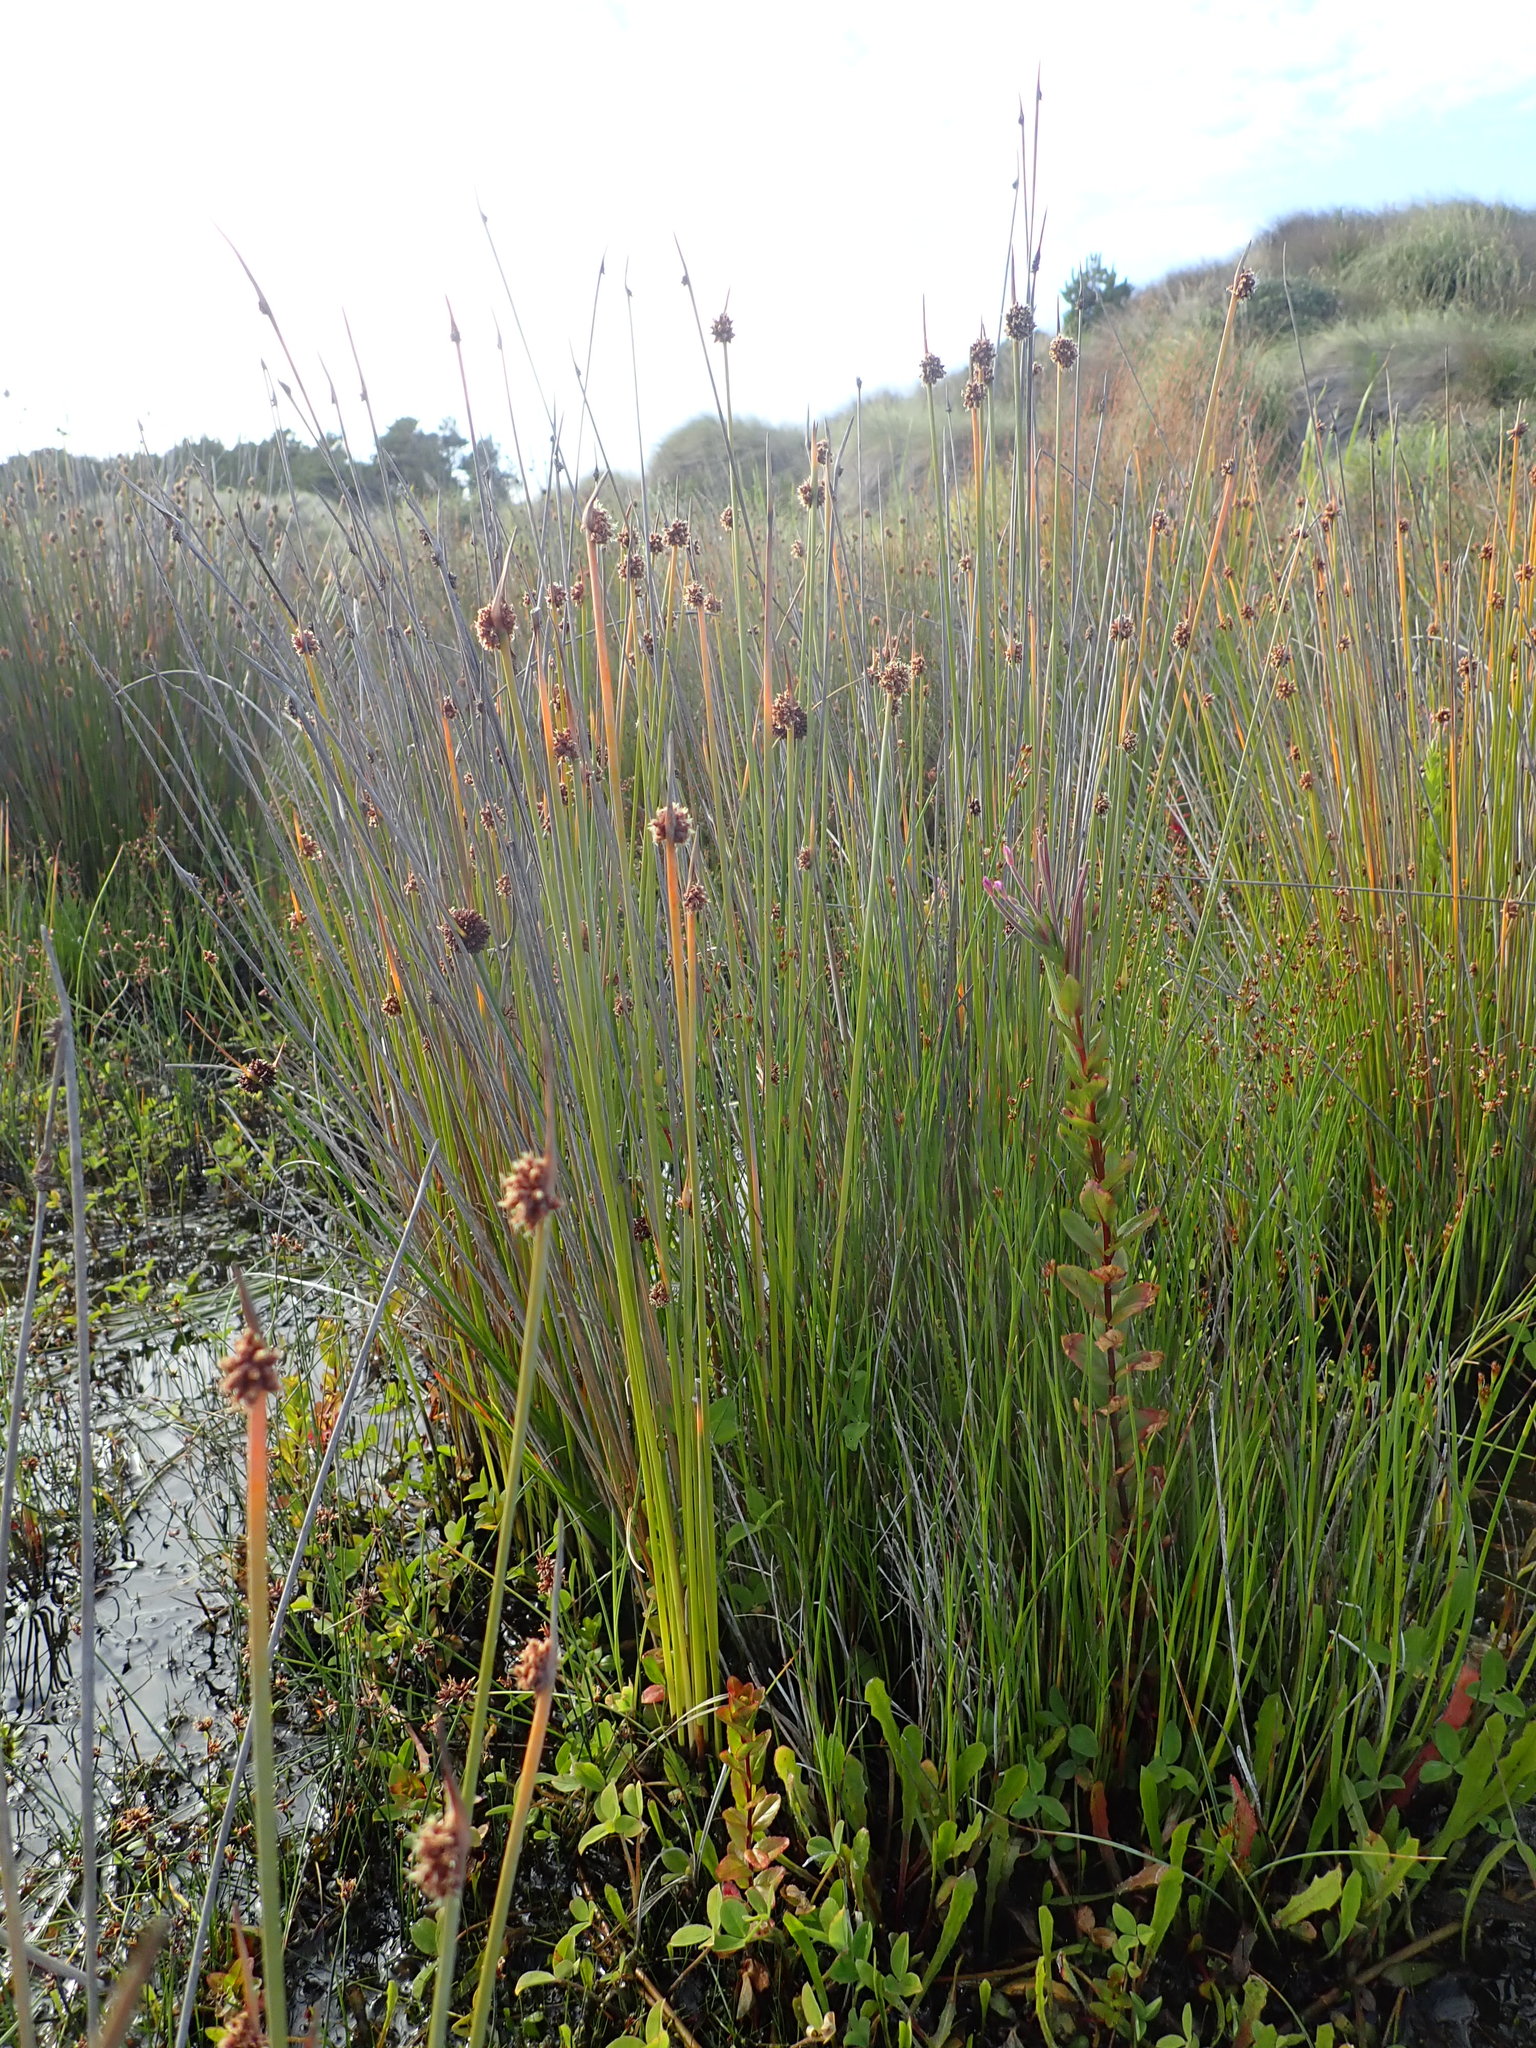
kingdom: Plantae
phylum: Tracheophyta
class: Magnoliopsida
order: Myrtales
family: Onagraceae
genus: Epilobium
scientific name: Epilobium billardiereanum
